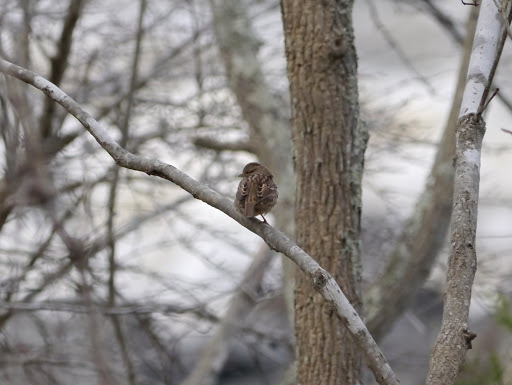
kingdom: Animalia
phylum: Chordata
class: Aves
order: Passeriformes
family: Passerellidae
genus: Melospiza
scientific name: Melospiza melodia
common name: Song sparrow
